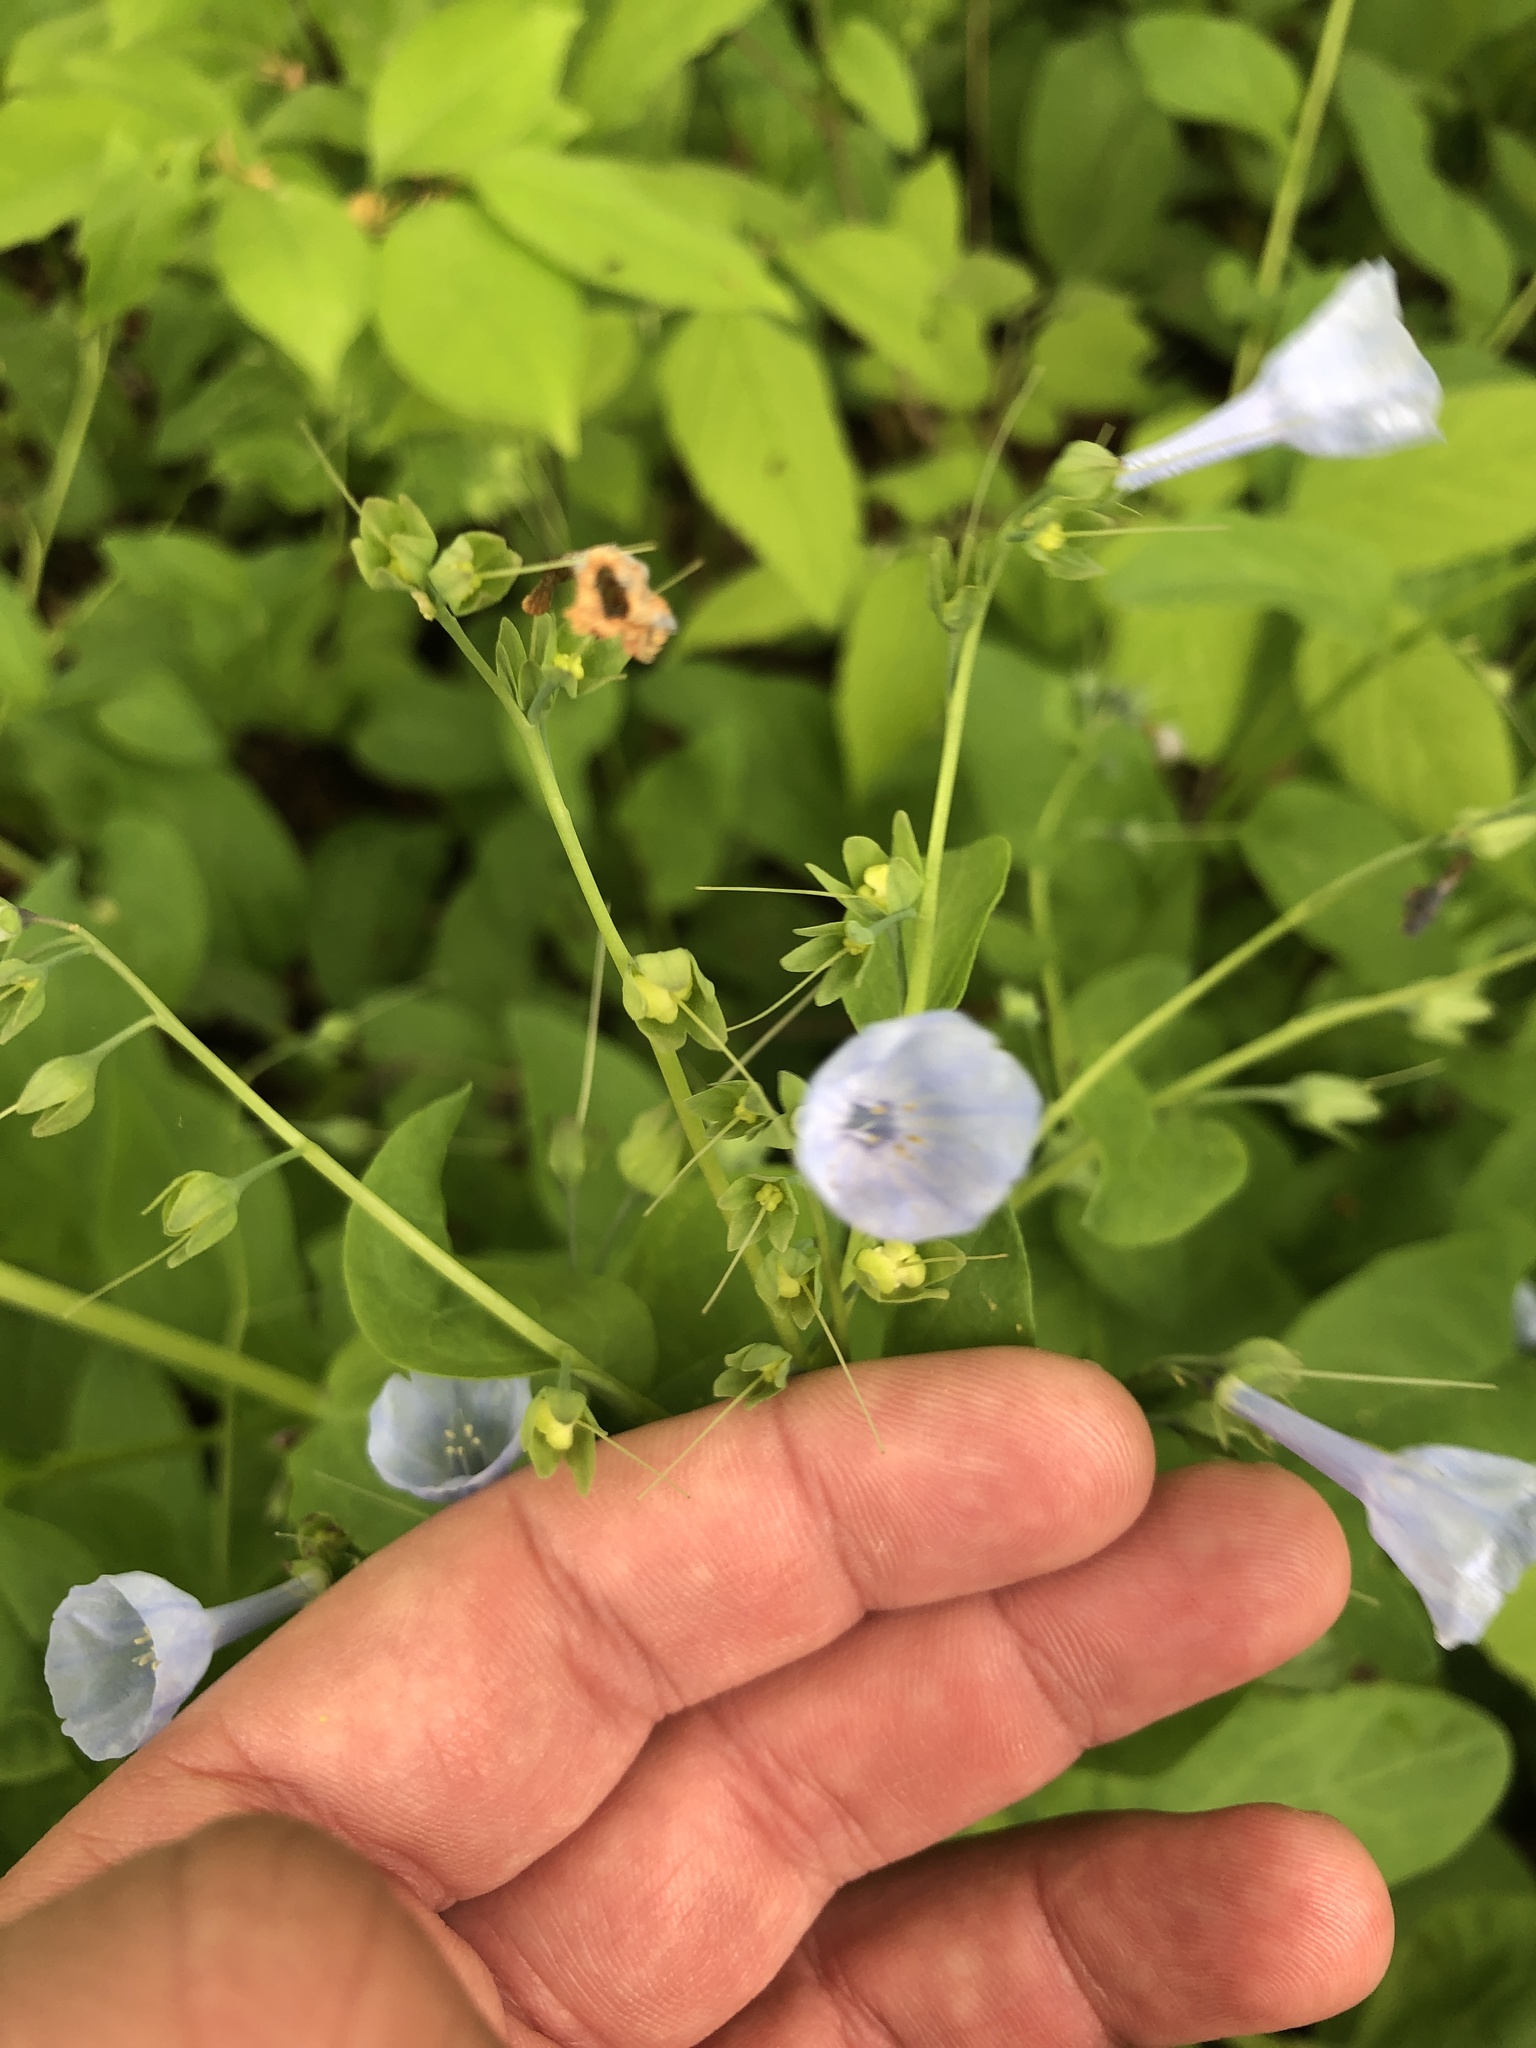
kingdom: Plantae
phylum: Tracheophyta
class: Magnoliopsida
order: Boraginales
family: Boraginaceae
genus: Mertensia
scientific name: Mertensia virginica
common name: Virginia bluebells
